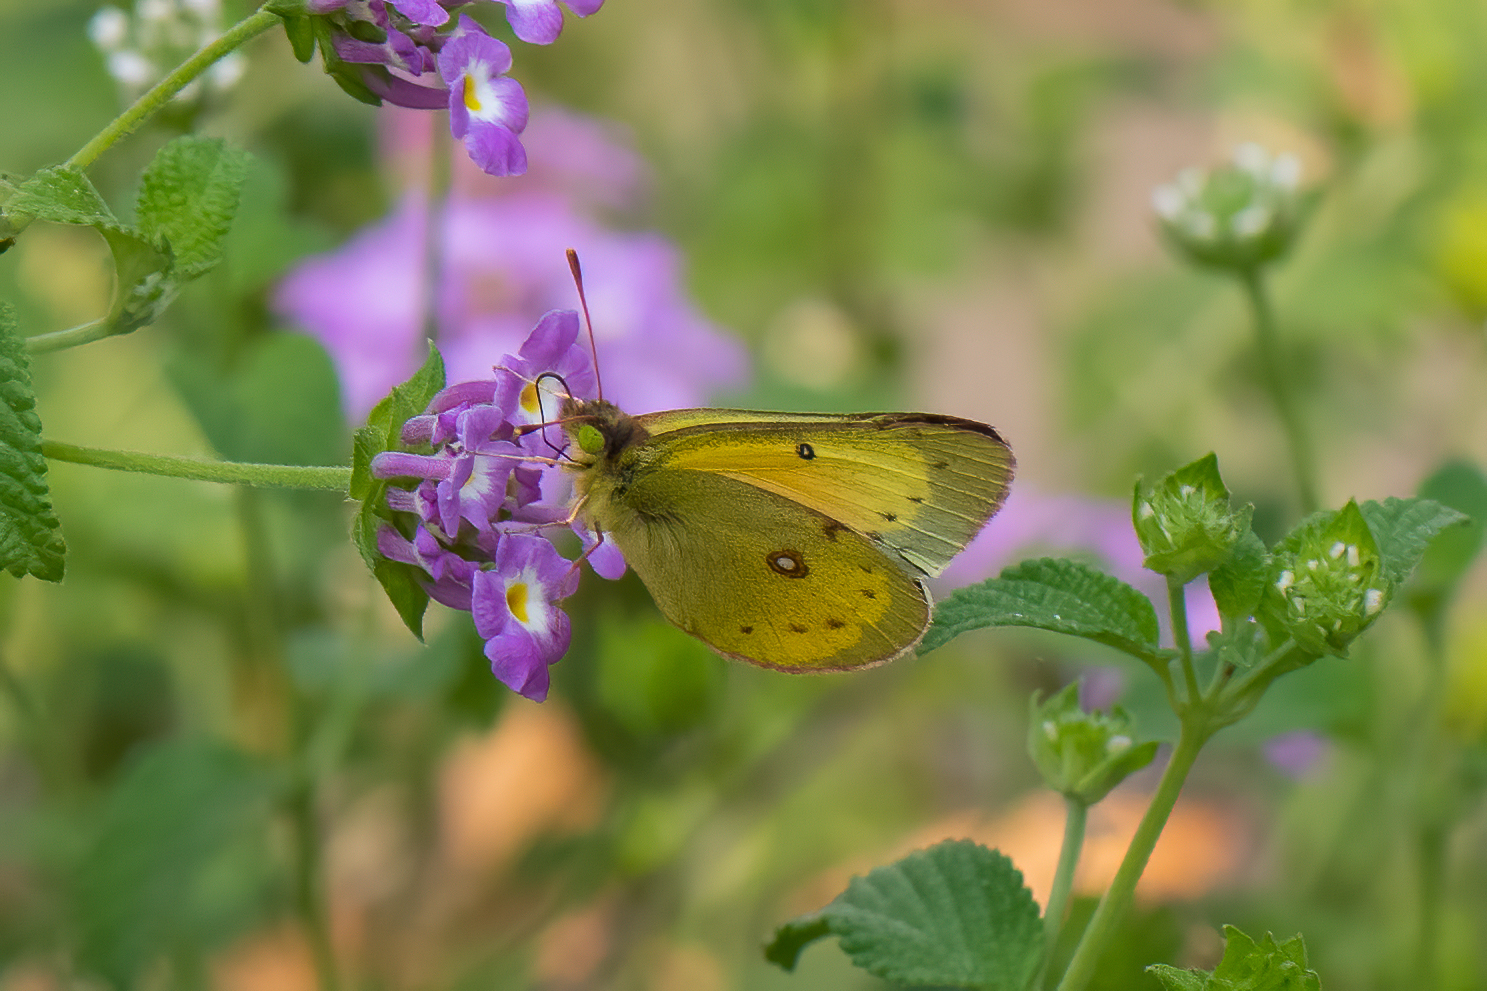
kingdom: Animalia
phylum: Arthropoda
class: Insecta
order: Lepidoptera
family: Pieridae
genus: Colias
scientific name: Colias eurytheme
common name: Alfalfa butterfly
